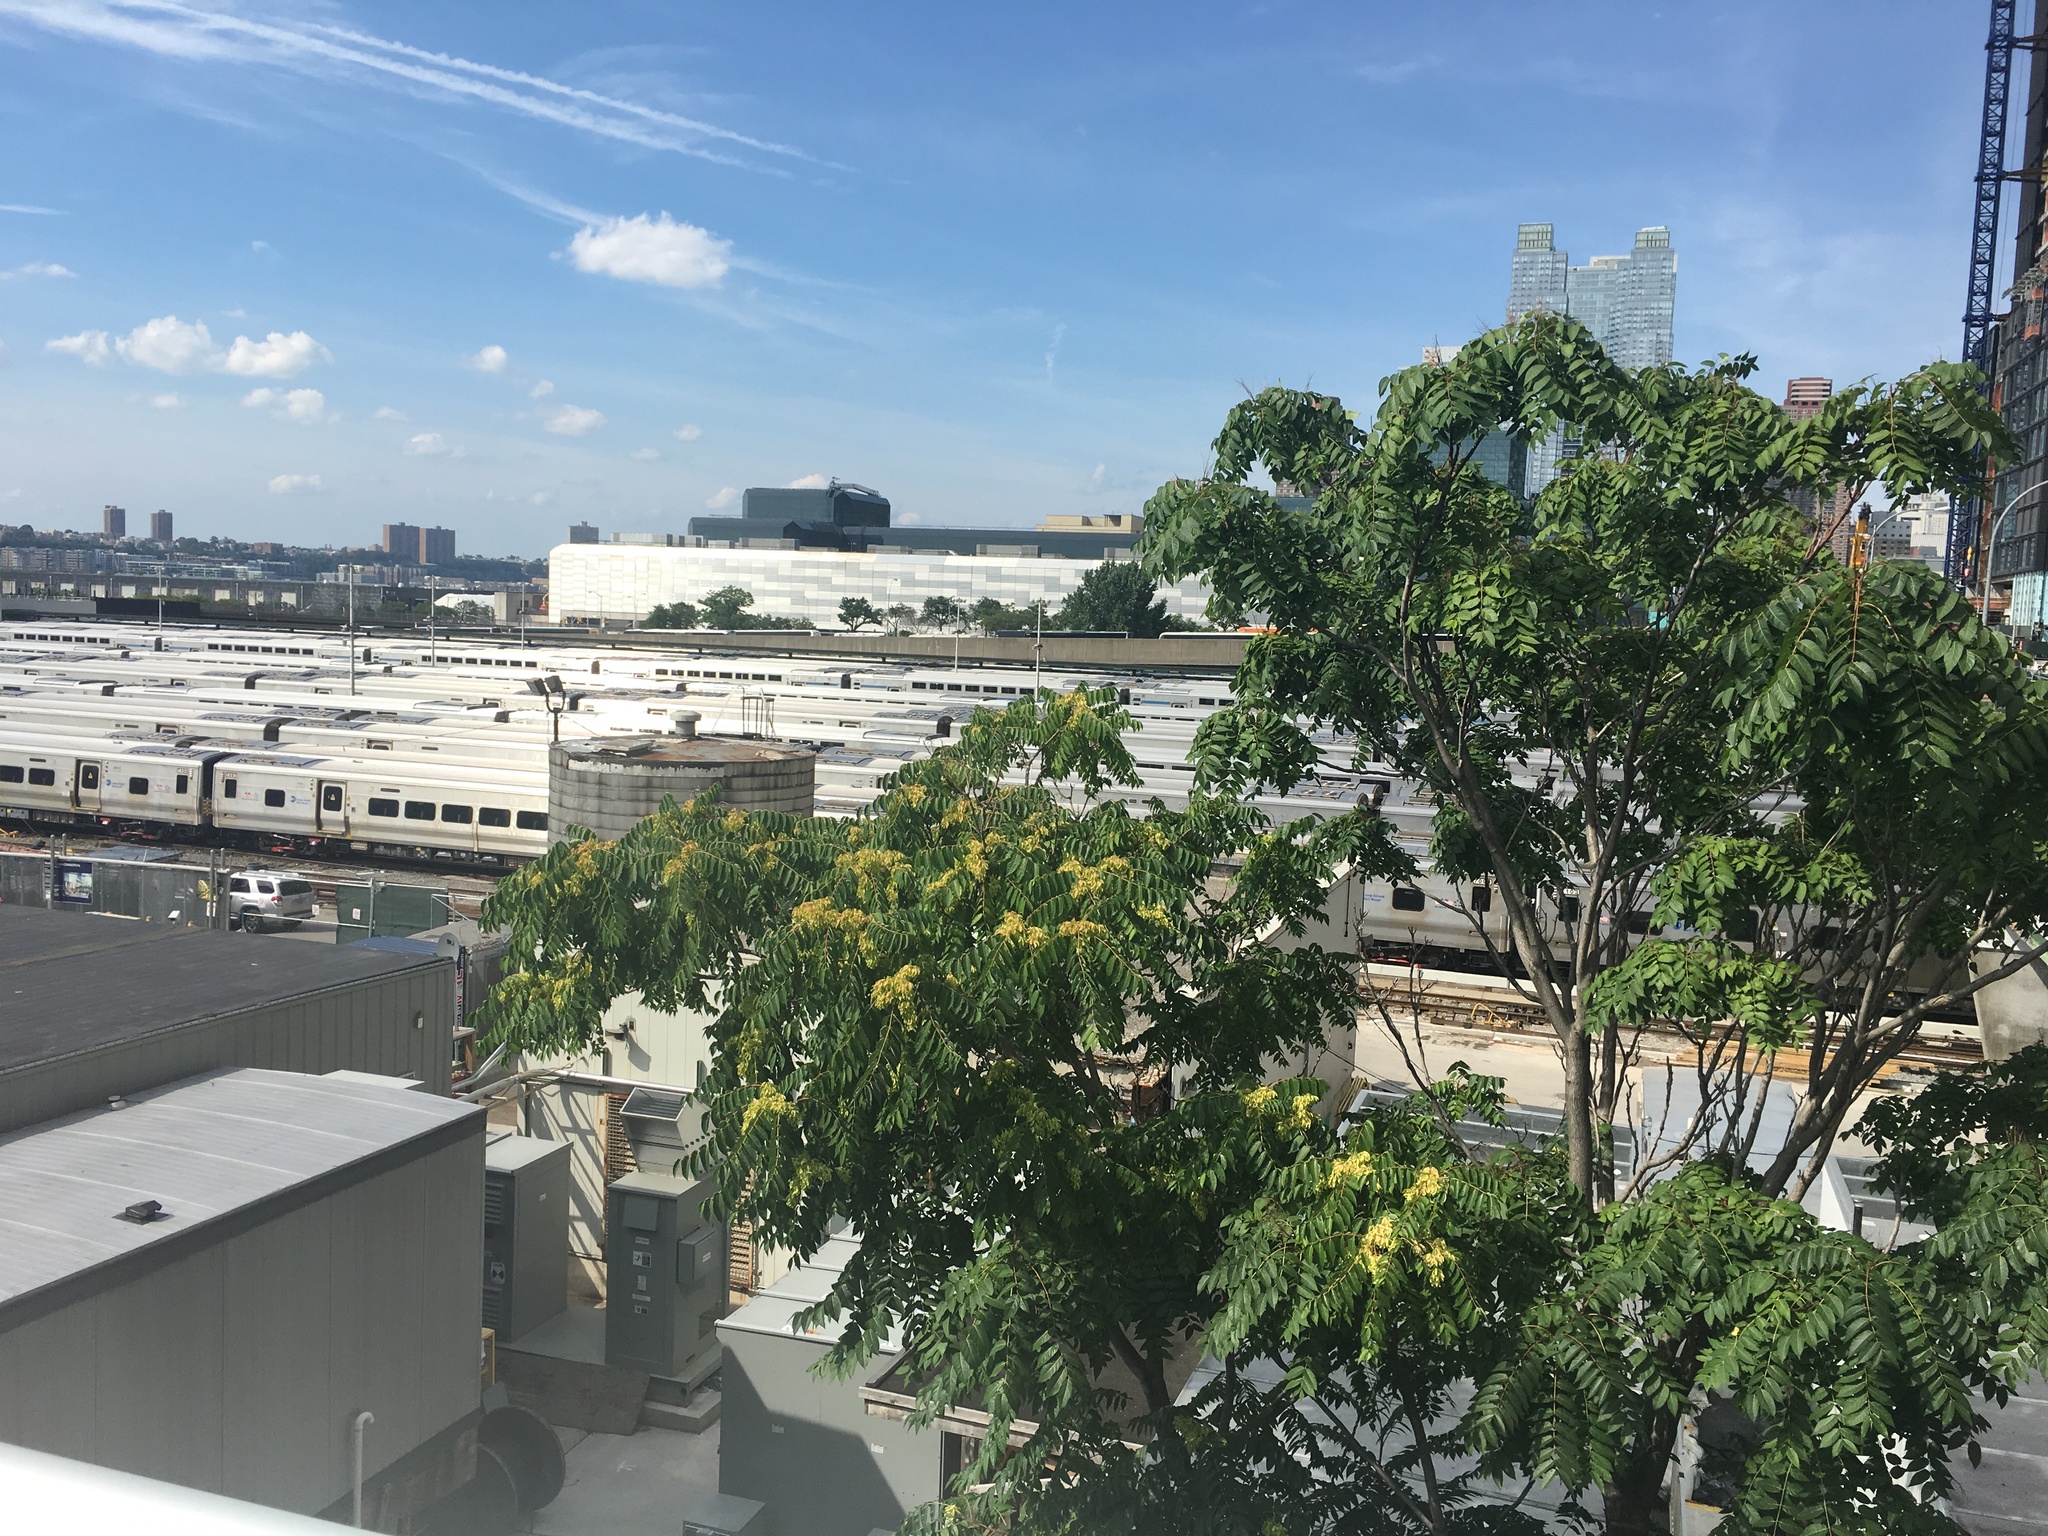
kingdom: Plantae
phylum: Tracheophyta
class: Magnoliopsida
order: Sapindales
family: Simaroubaceae
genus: Ailanthus
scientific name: Ailanthus altissima
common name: Tree-of-heaven
